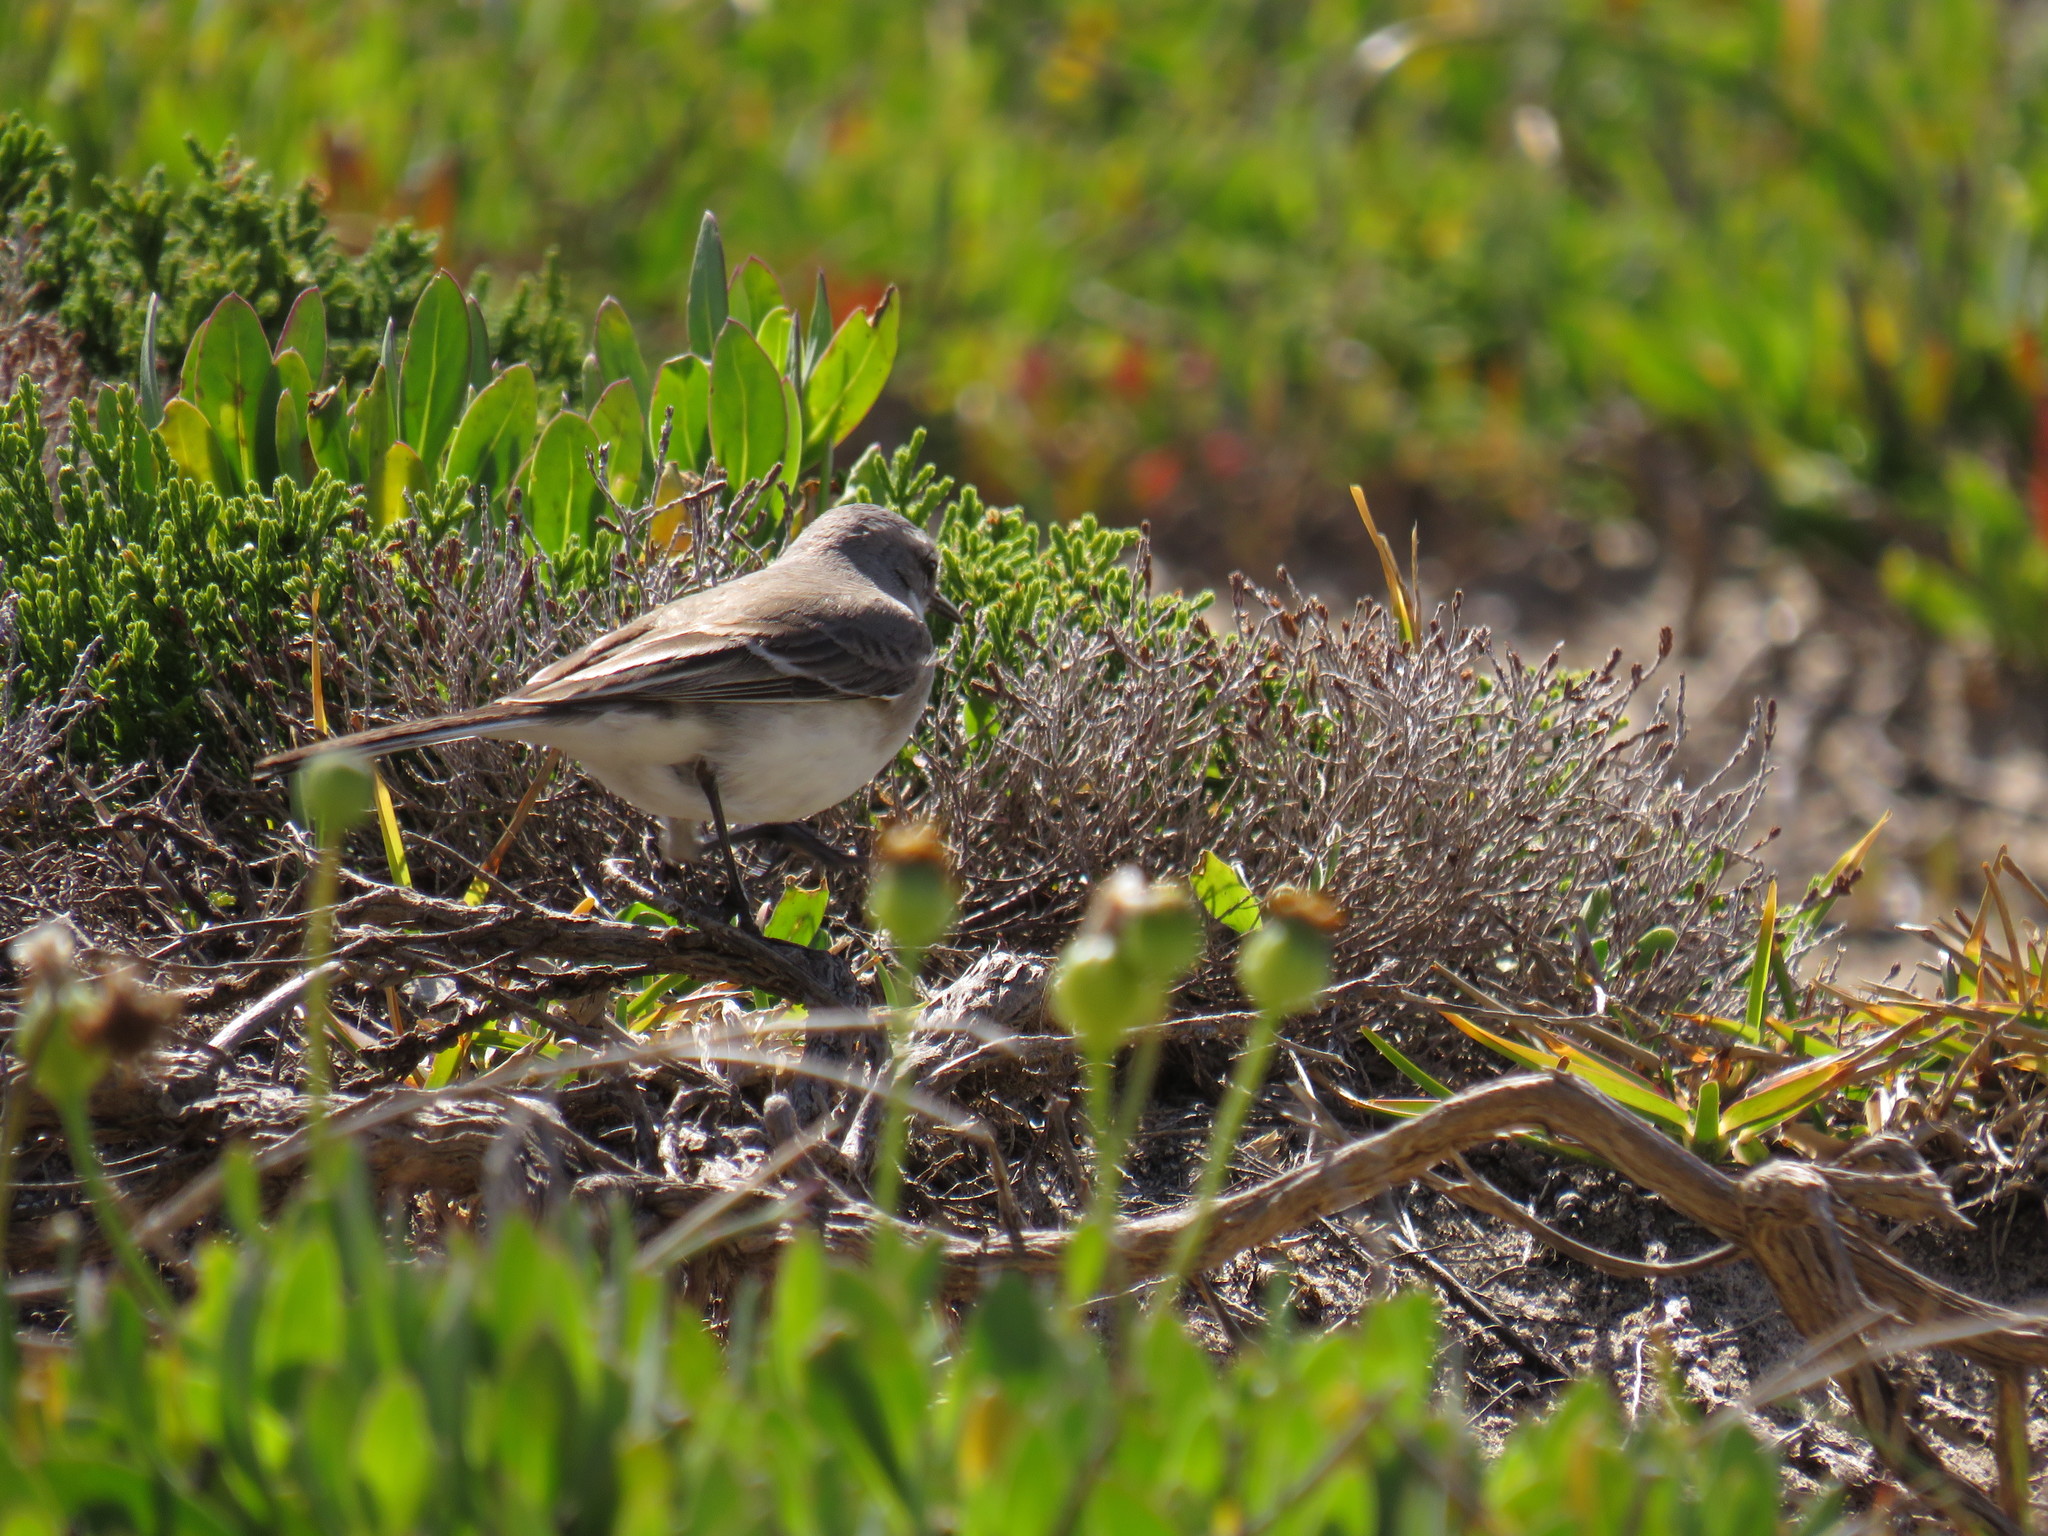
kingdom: Animalia
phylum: Chordata
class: Aves
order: Passeriformes
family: Motacillidae
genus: Motacilla
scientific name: Motacilla capensis
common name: Cape wagtail
